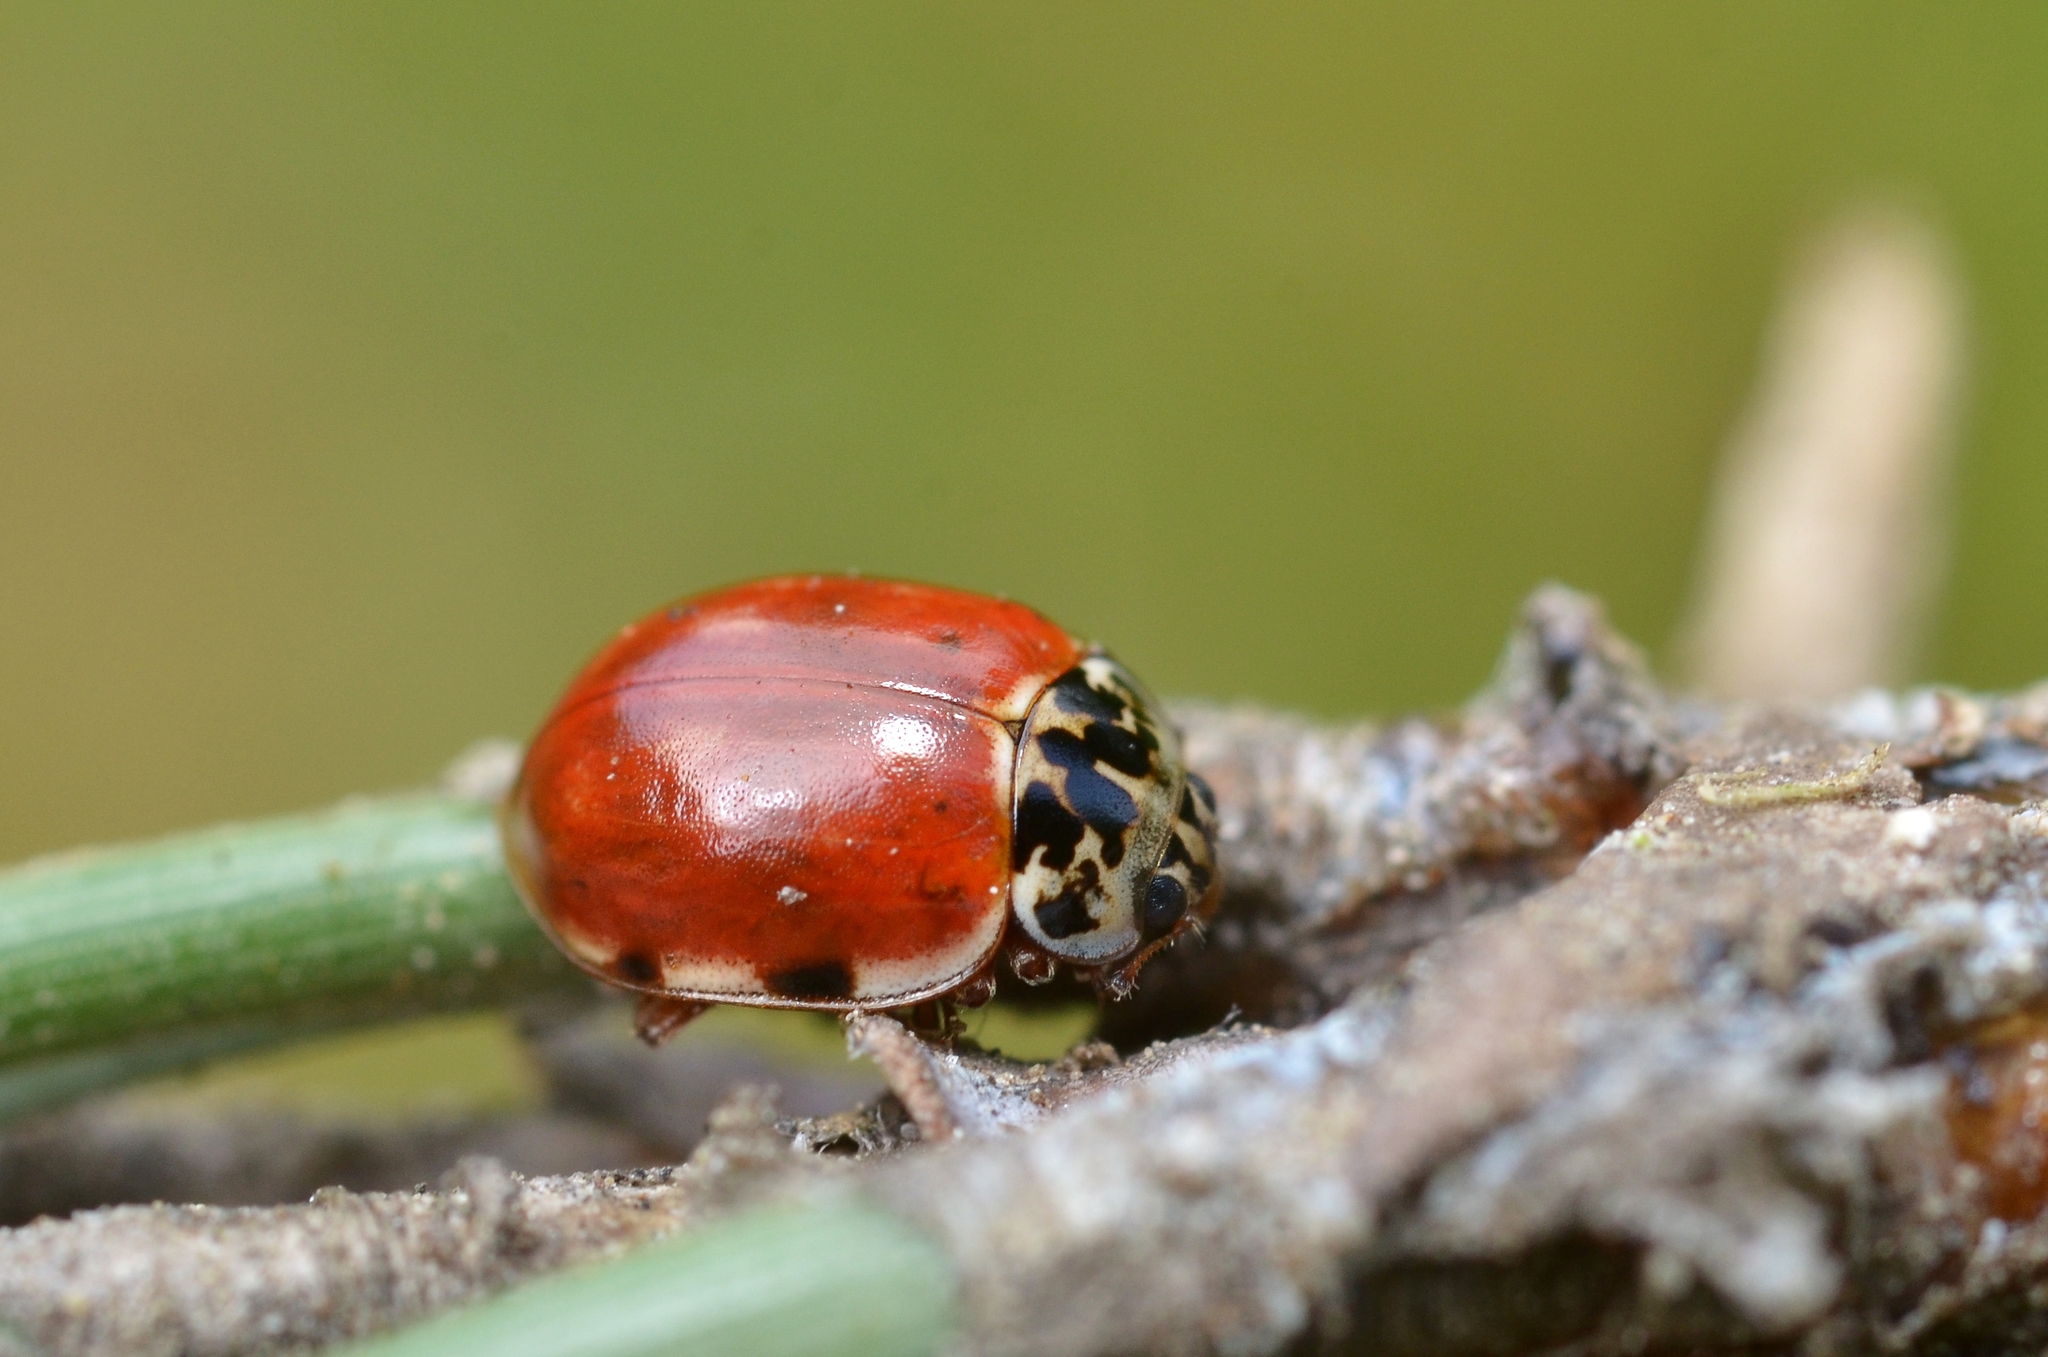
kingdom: Animalia
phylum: Arthropoda
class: Insecta
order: Coleoptera
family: Coccinellidae
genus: Harmonia
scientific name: Harmonia quadripunctata
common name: Cream-streaked ladybird
